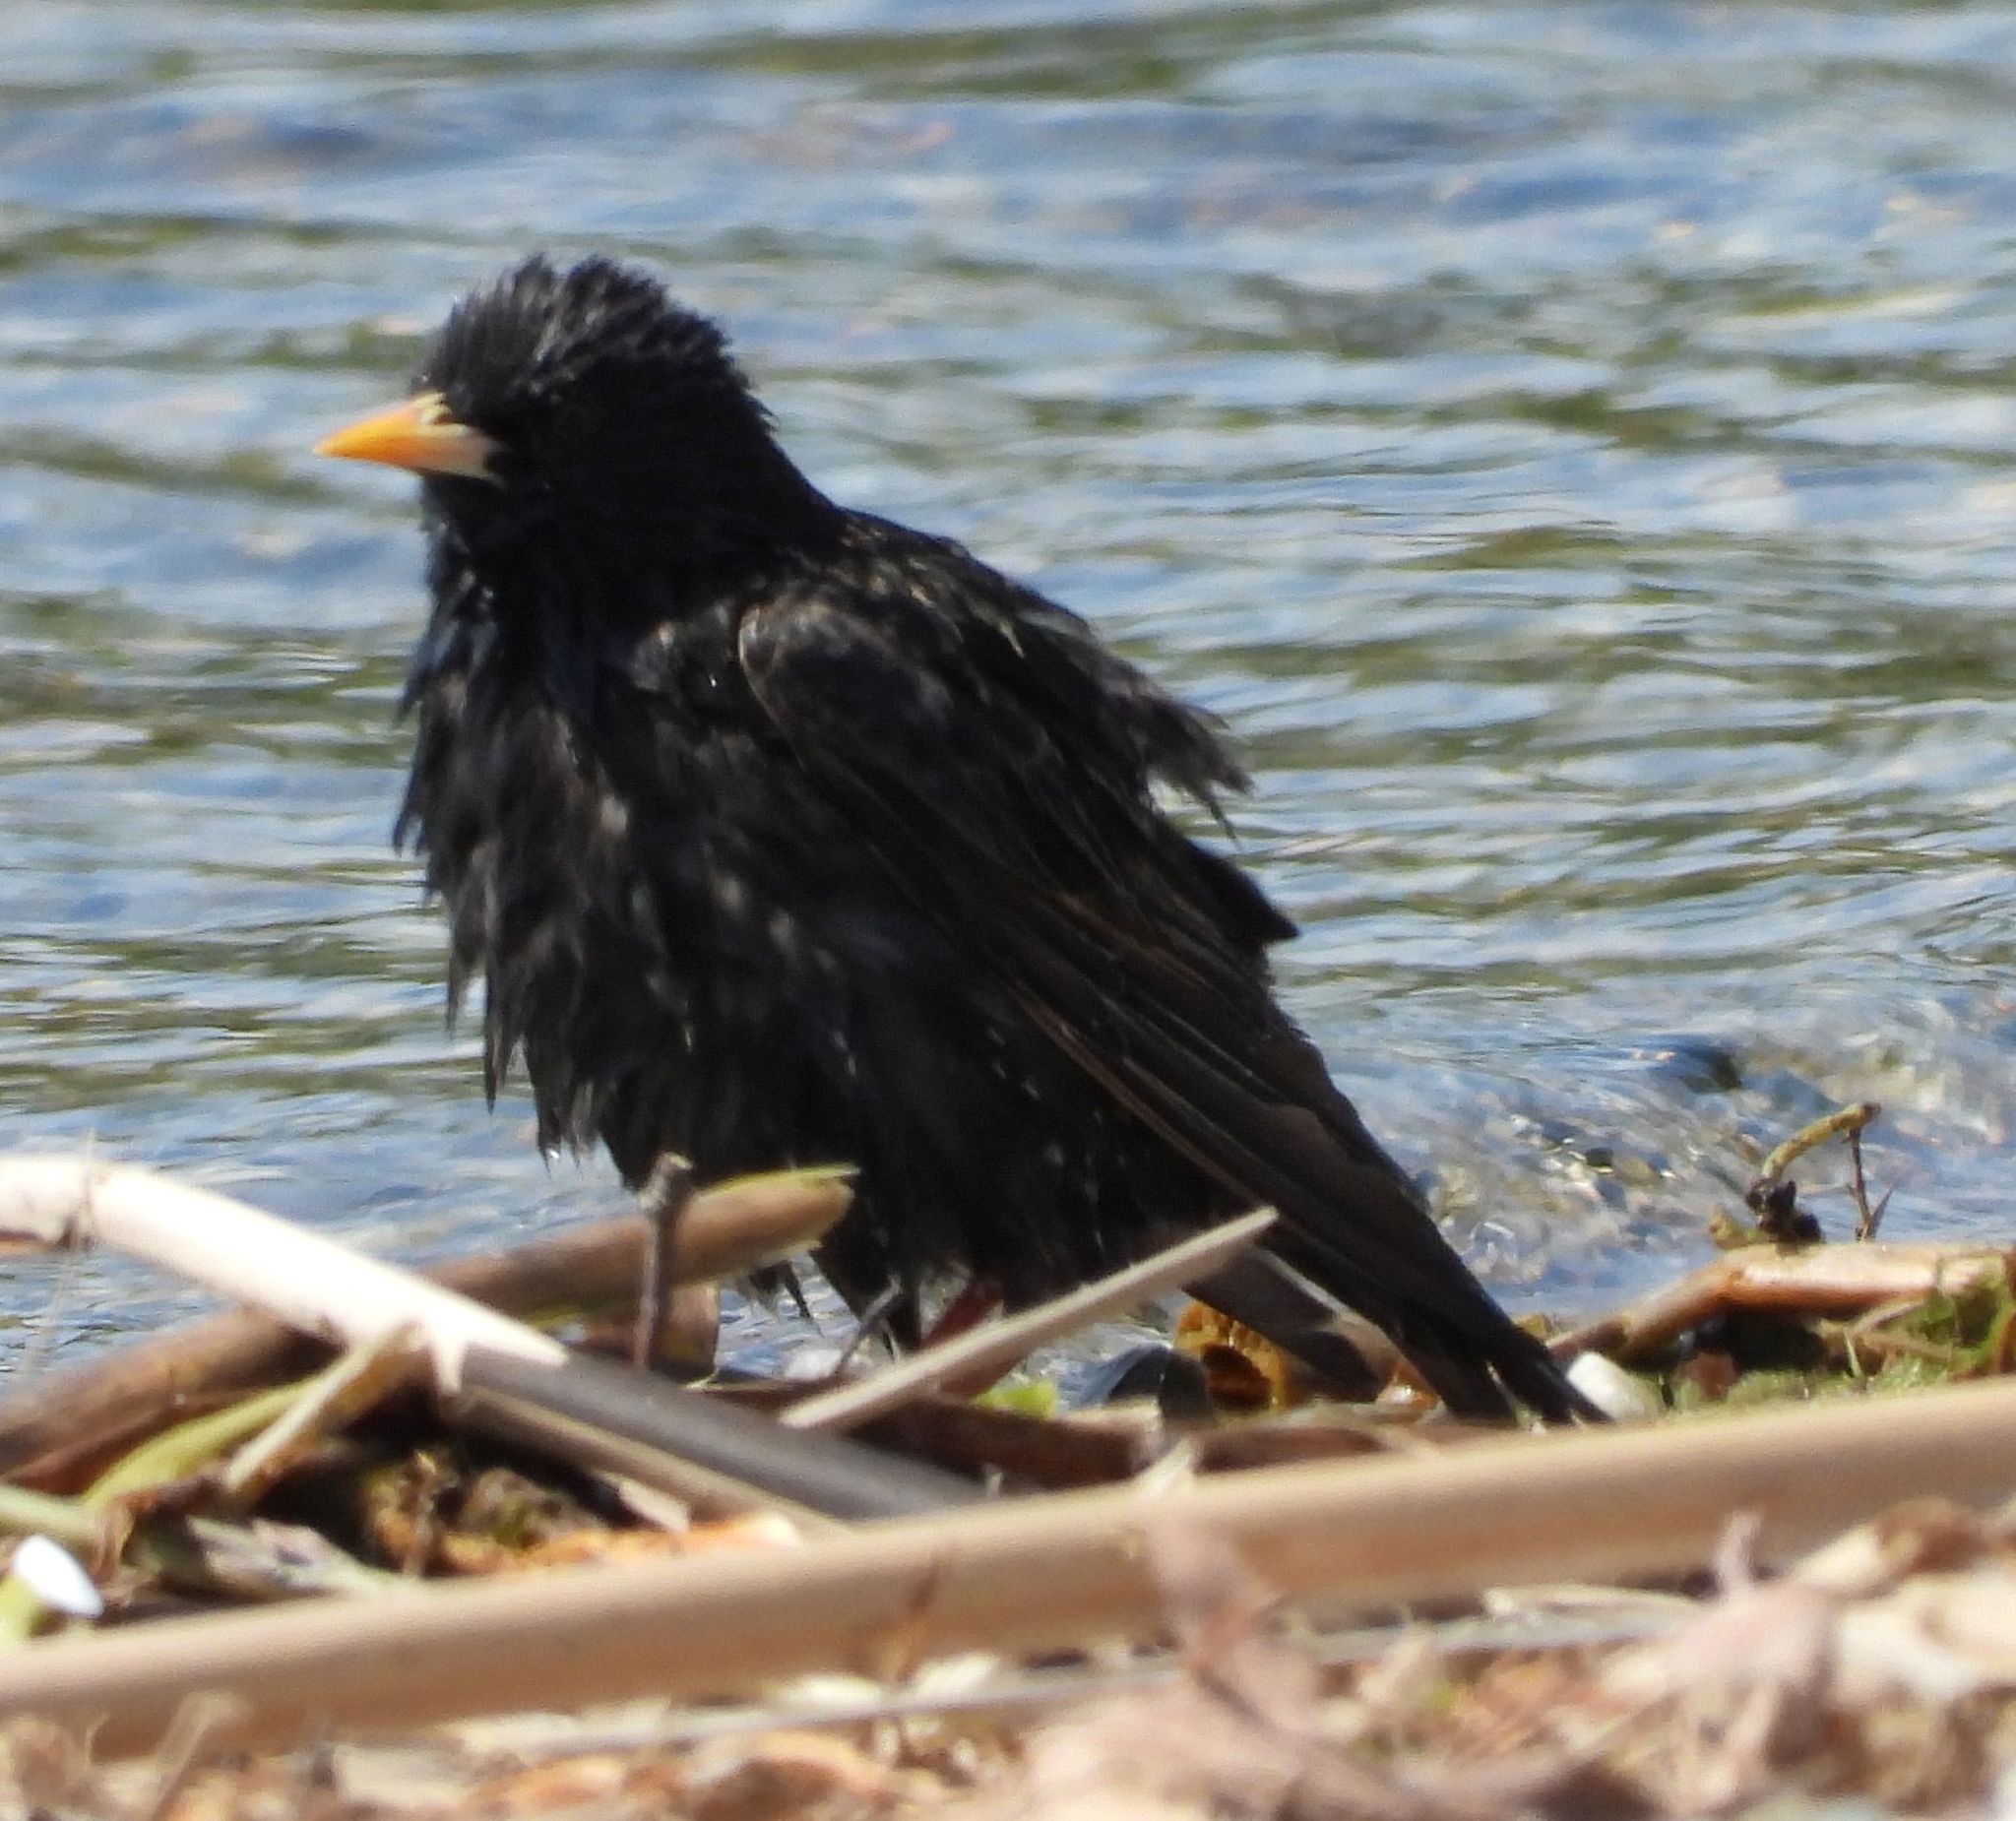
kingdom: Animalia
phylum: Chordata
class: Aves
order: Passeriformes
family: Sturnidae
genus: Sturnus
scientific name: Sturnus vulgaris
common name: Common starling
